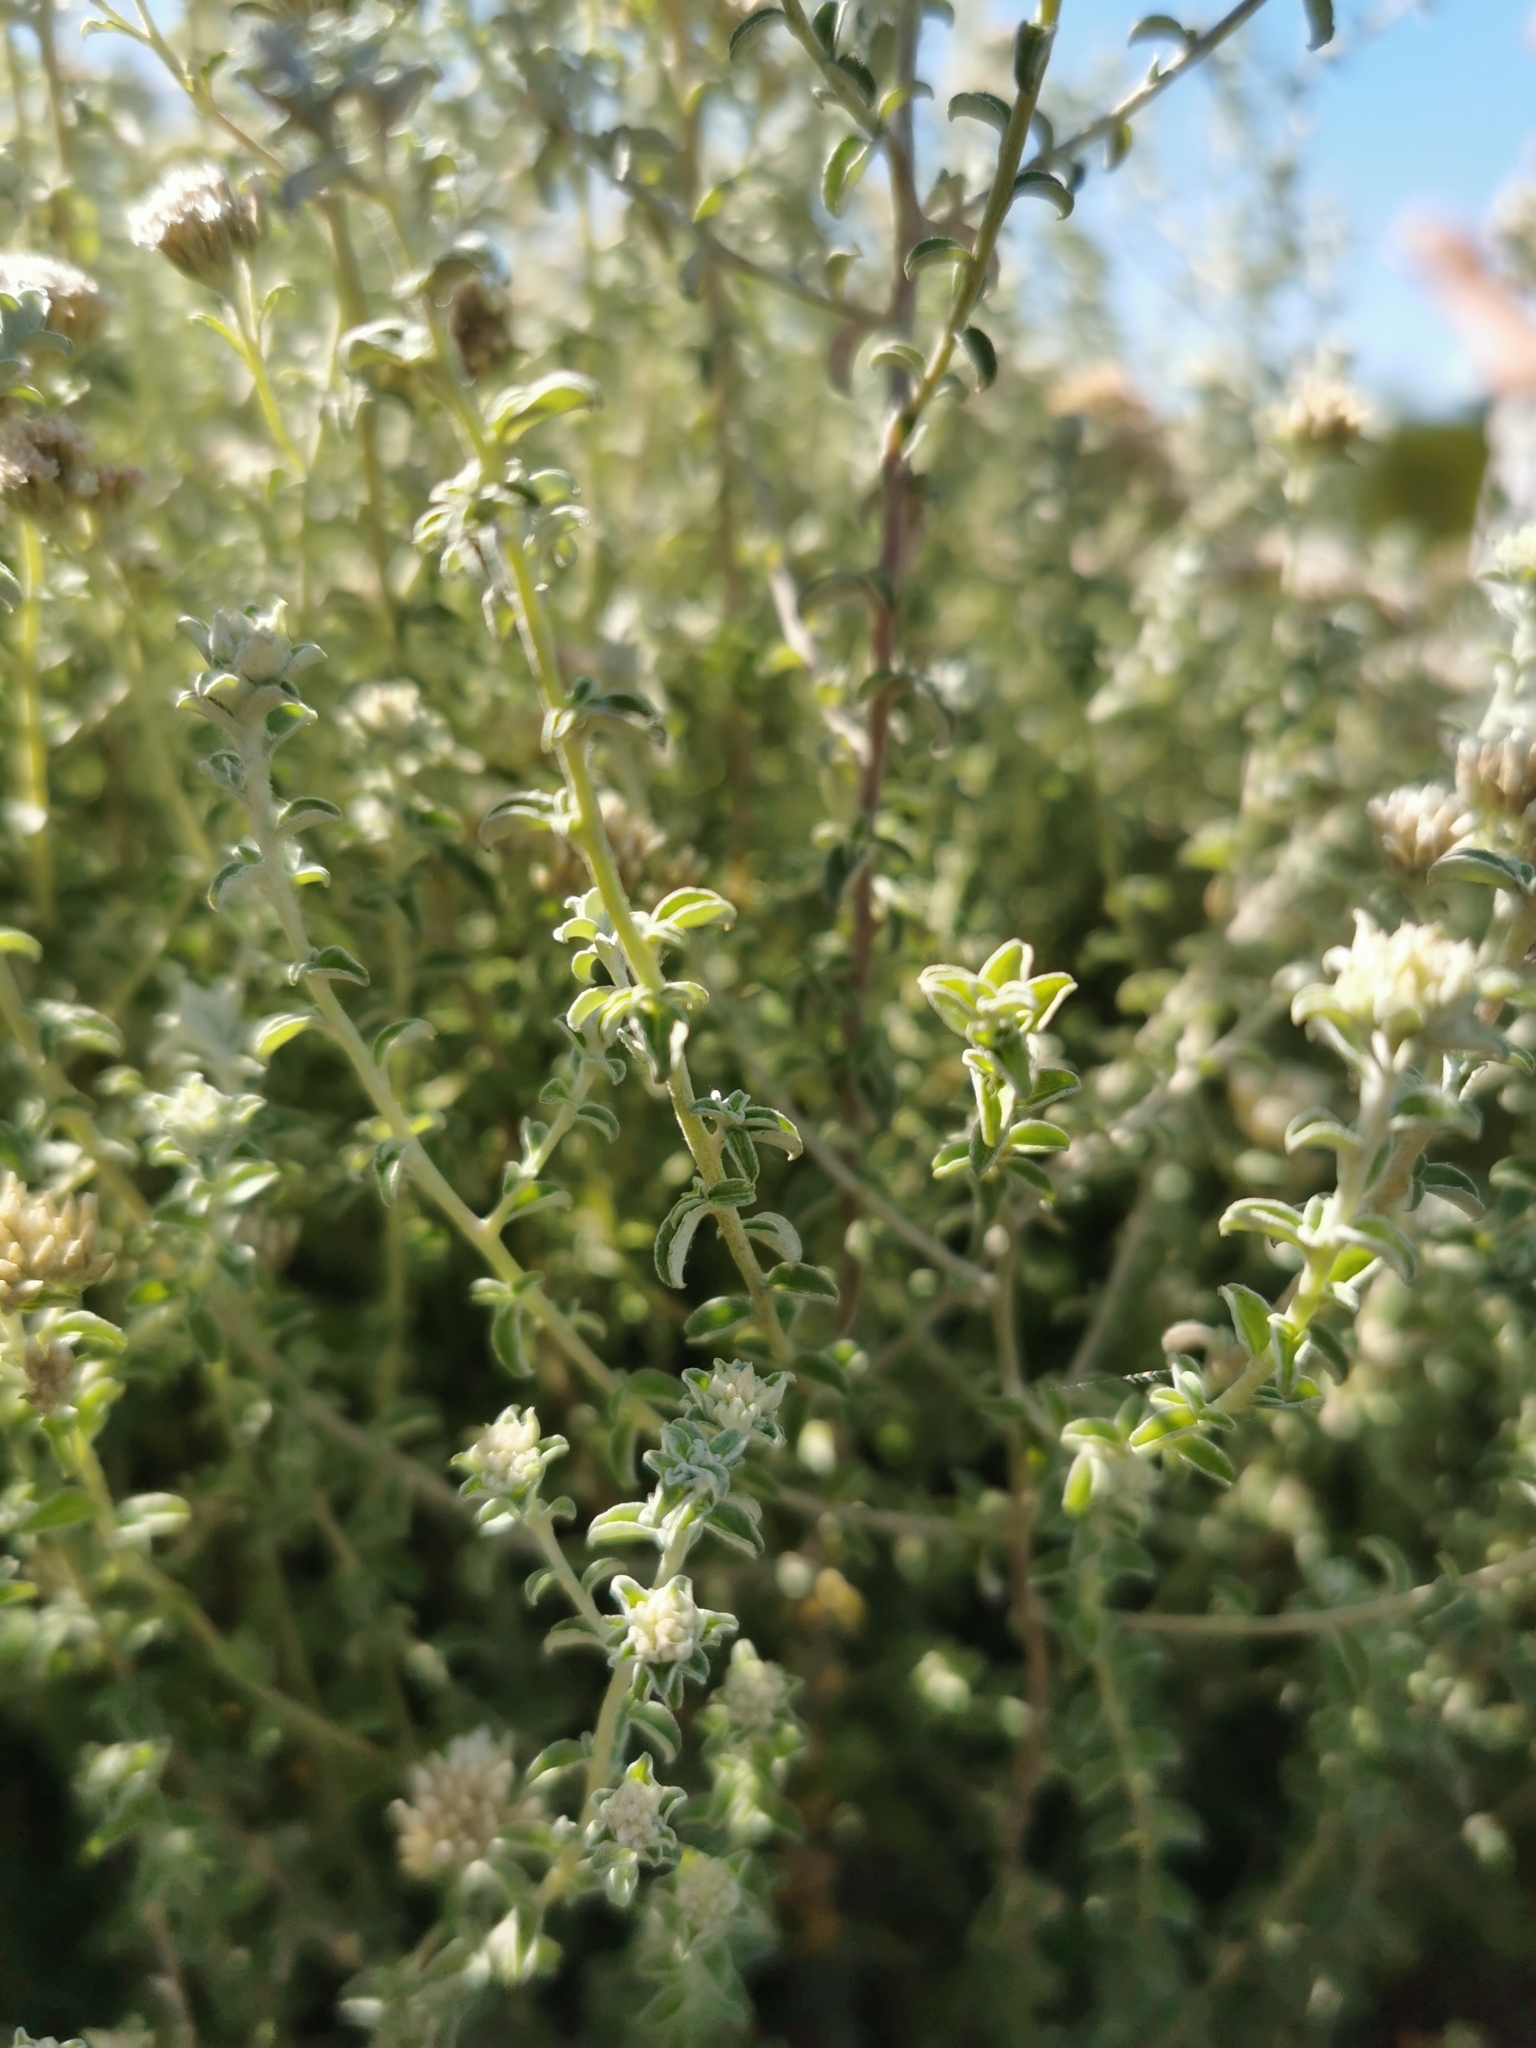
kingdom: Plantae
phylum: Tracheophyta
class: Magnoliopsida
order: Asterales
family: Asteraceae
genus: Plecostachys
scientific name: Plecostachys serpyllifolia
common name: Petite licorice
